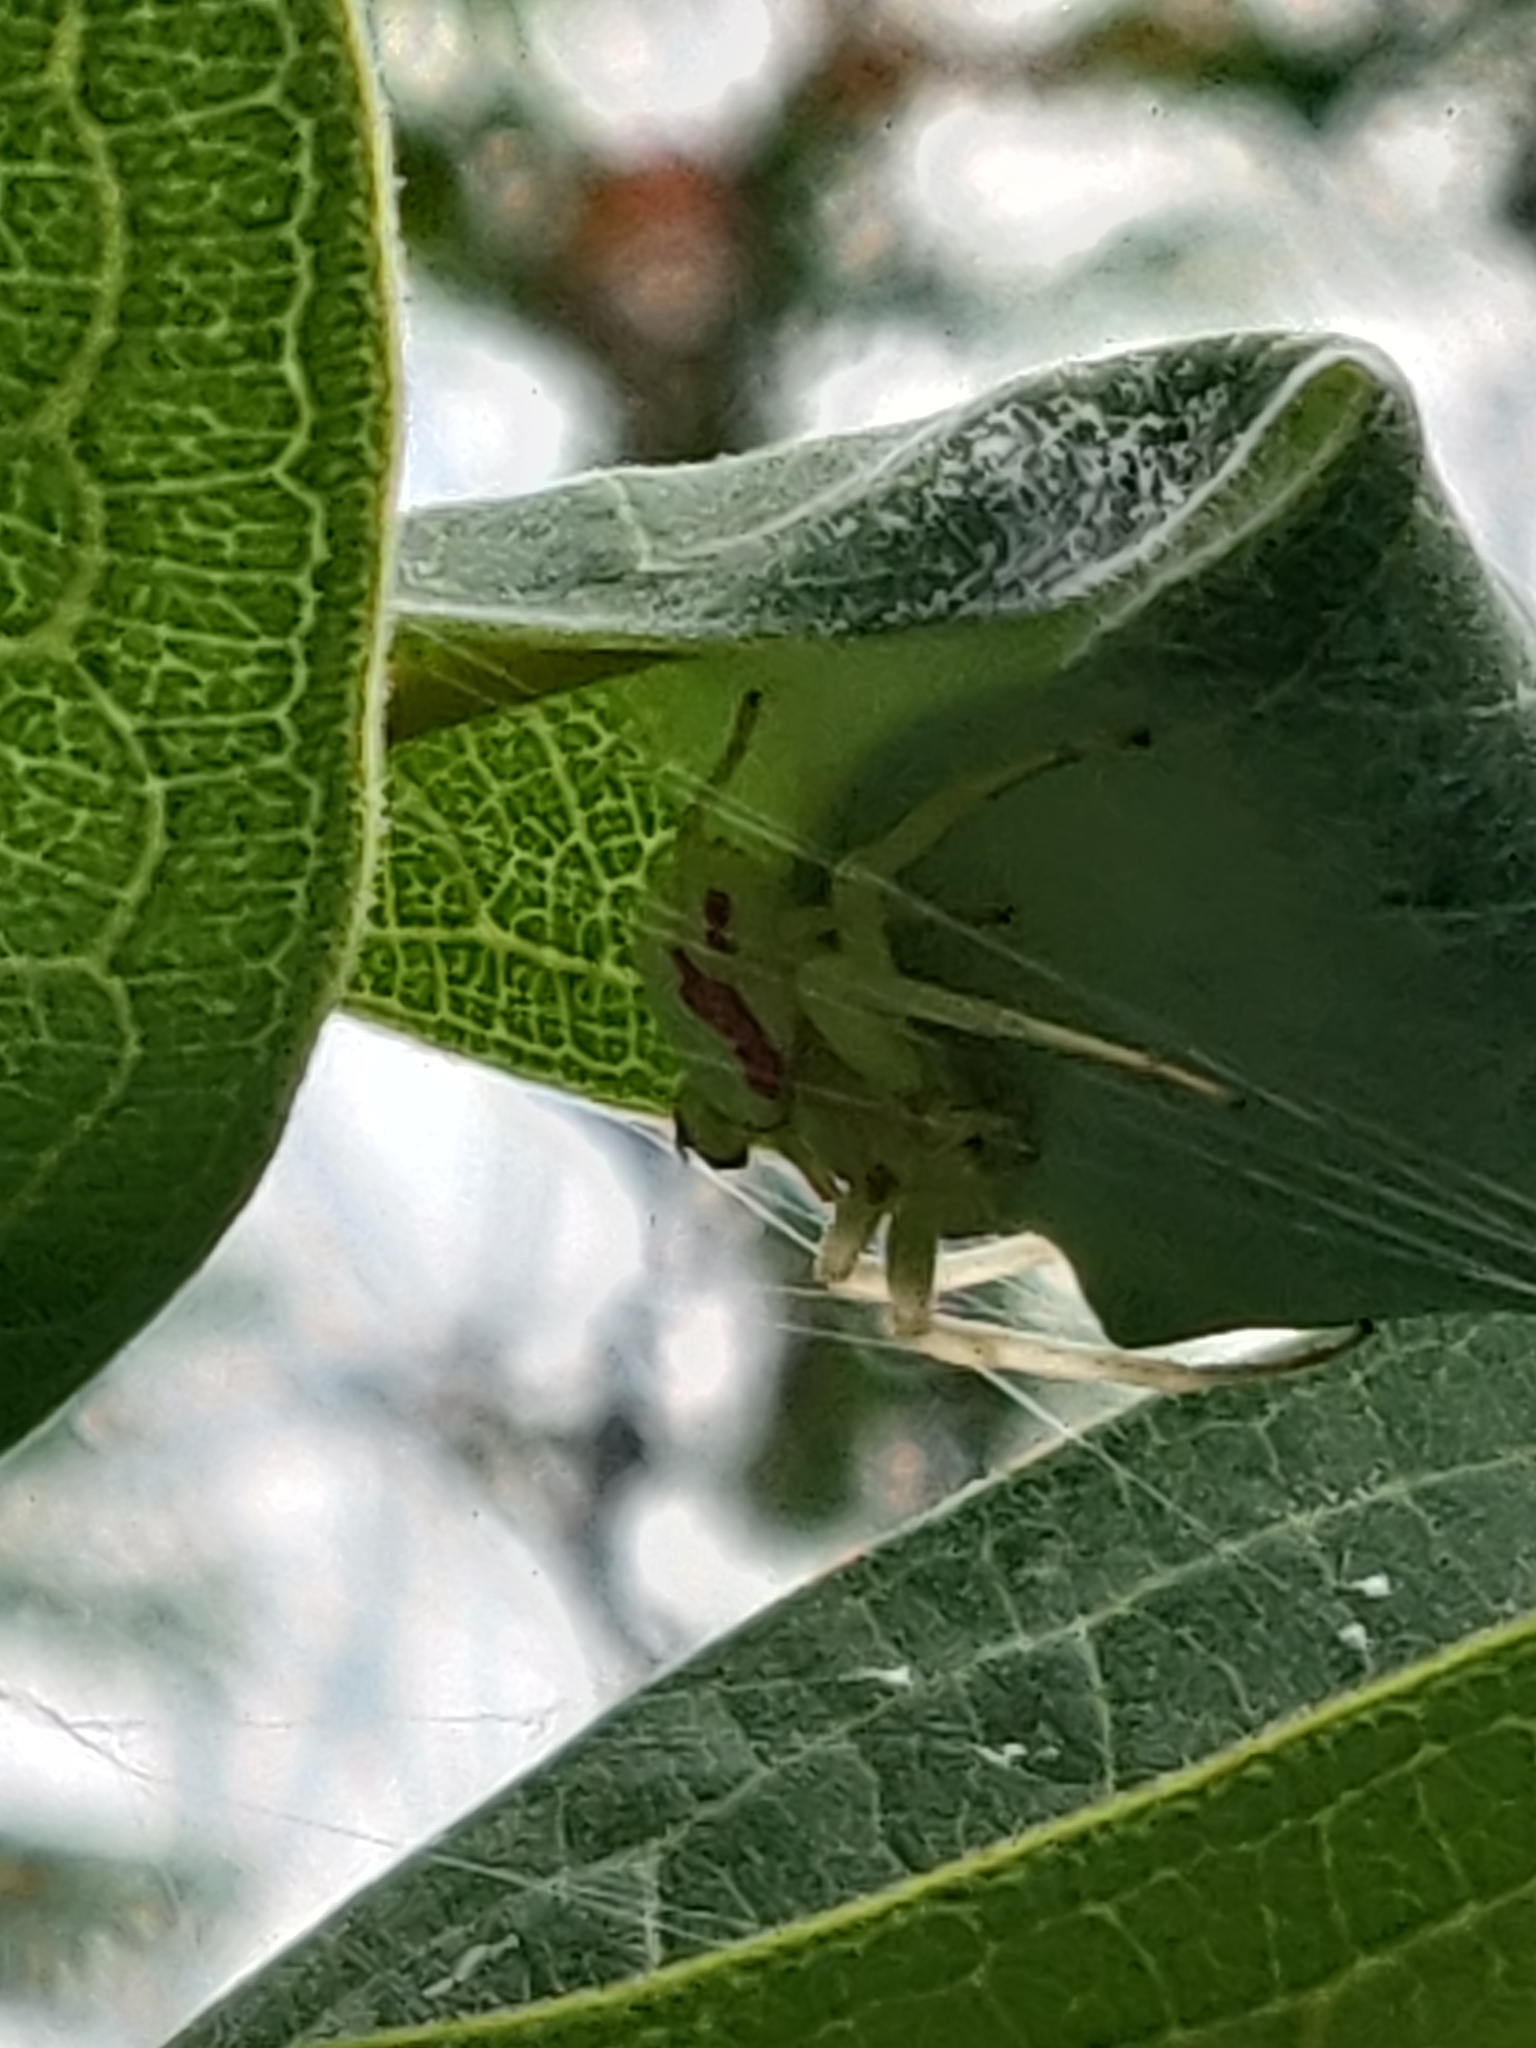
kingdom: Animalia
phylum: Arthropoda
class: Arachnida
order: Araneae
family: Thomisidae
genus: Misumena
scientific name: Misumena vatia
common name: Goldenrod crab spider
